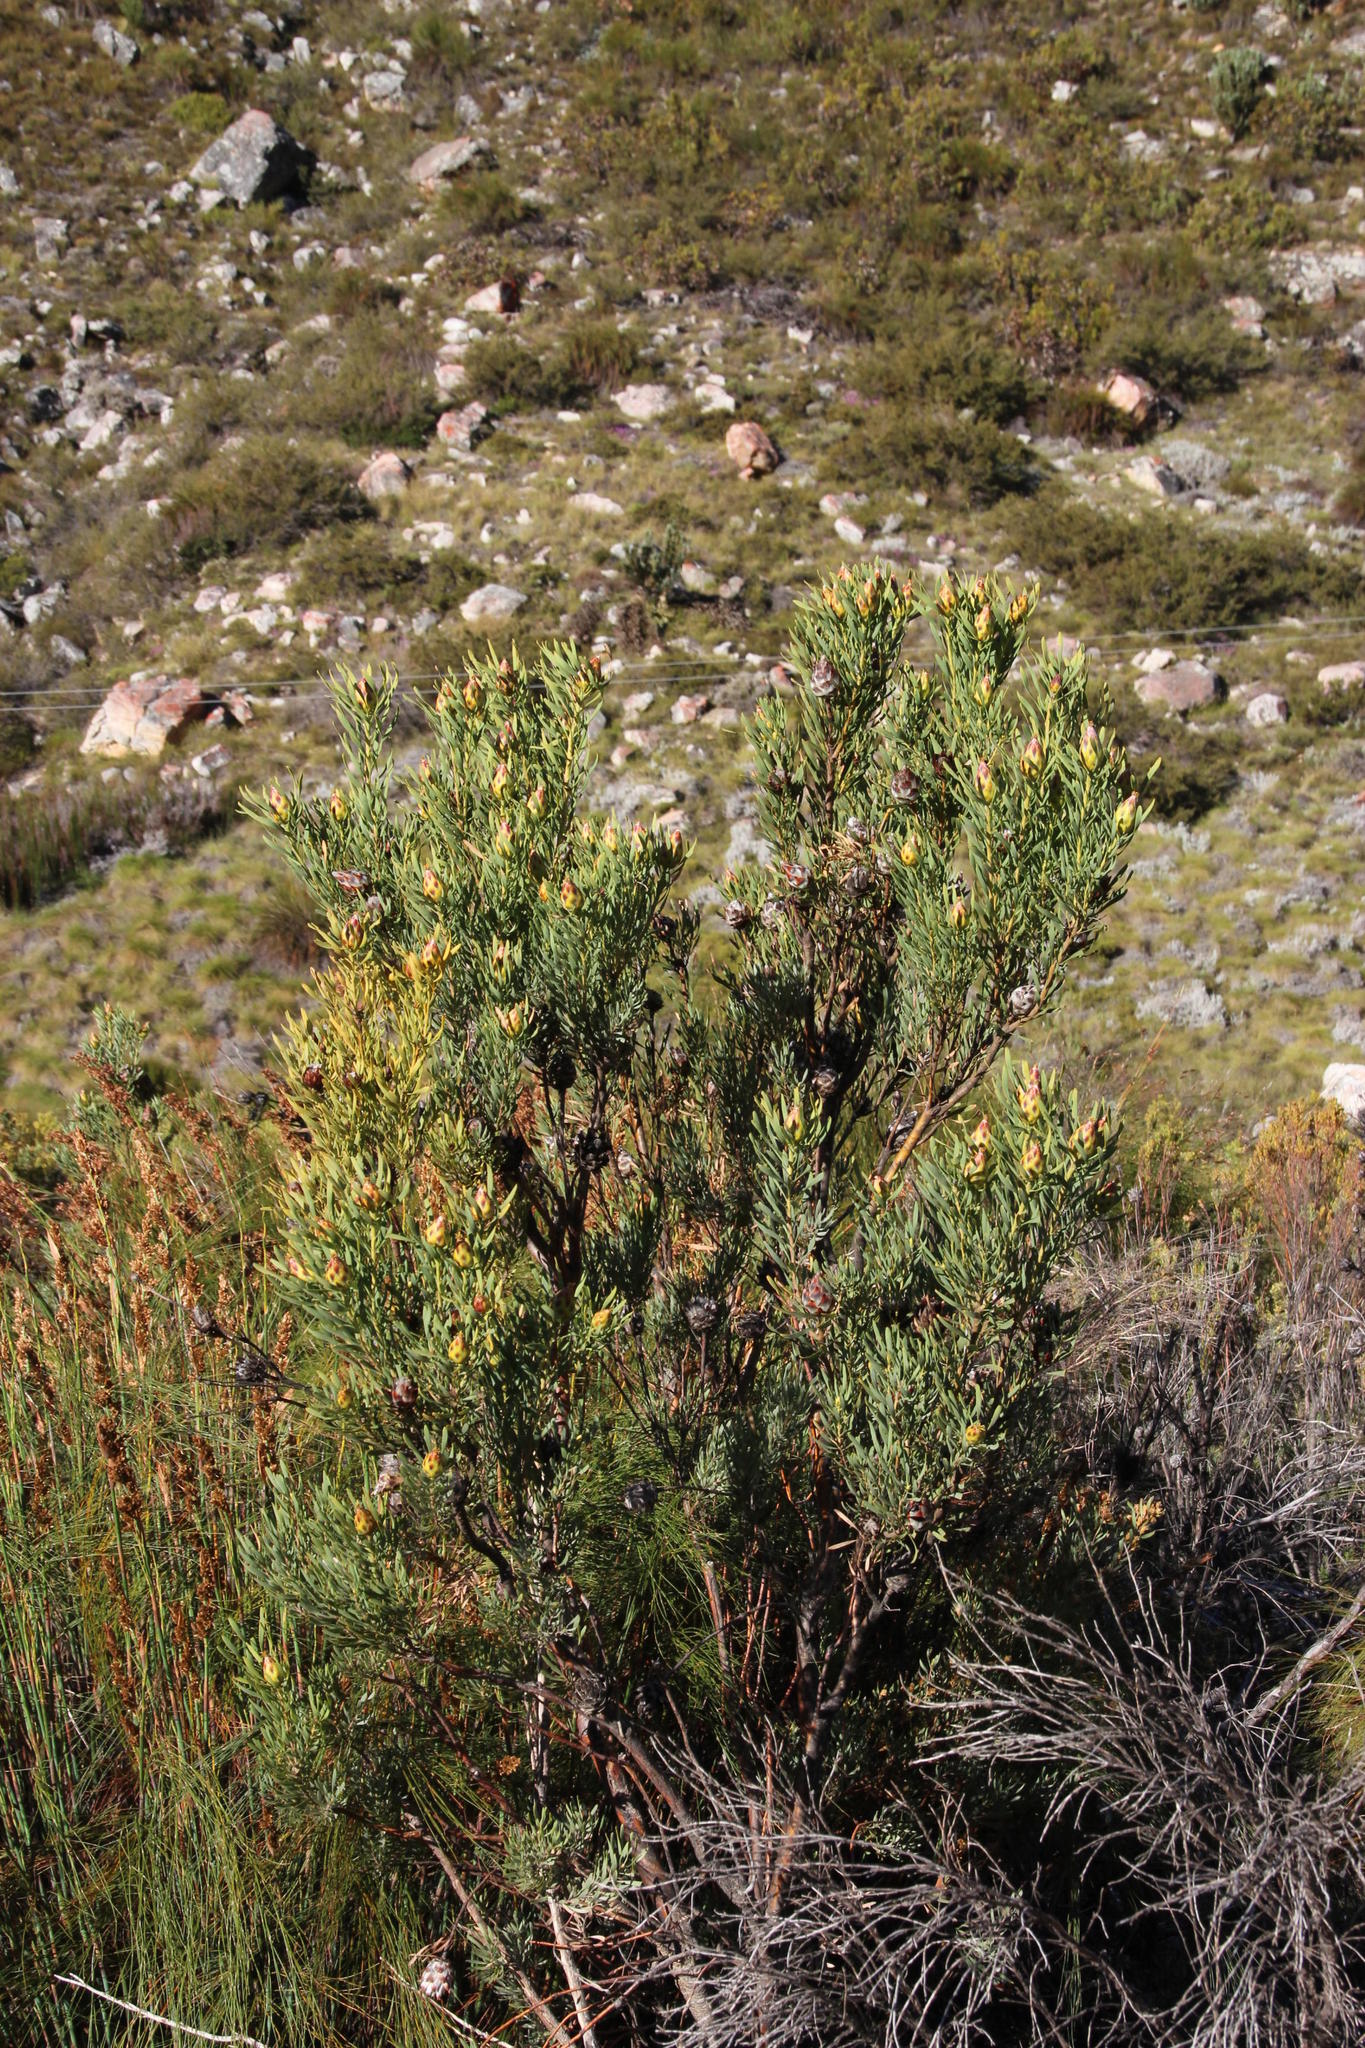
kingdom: Plantae
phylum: Tracheophyta
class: Magnoliopsida
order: Proteales
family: Proteaceae
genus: Leucadendron
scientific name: Leucadendron rubrum
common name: Spinning top
